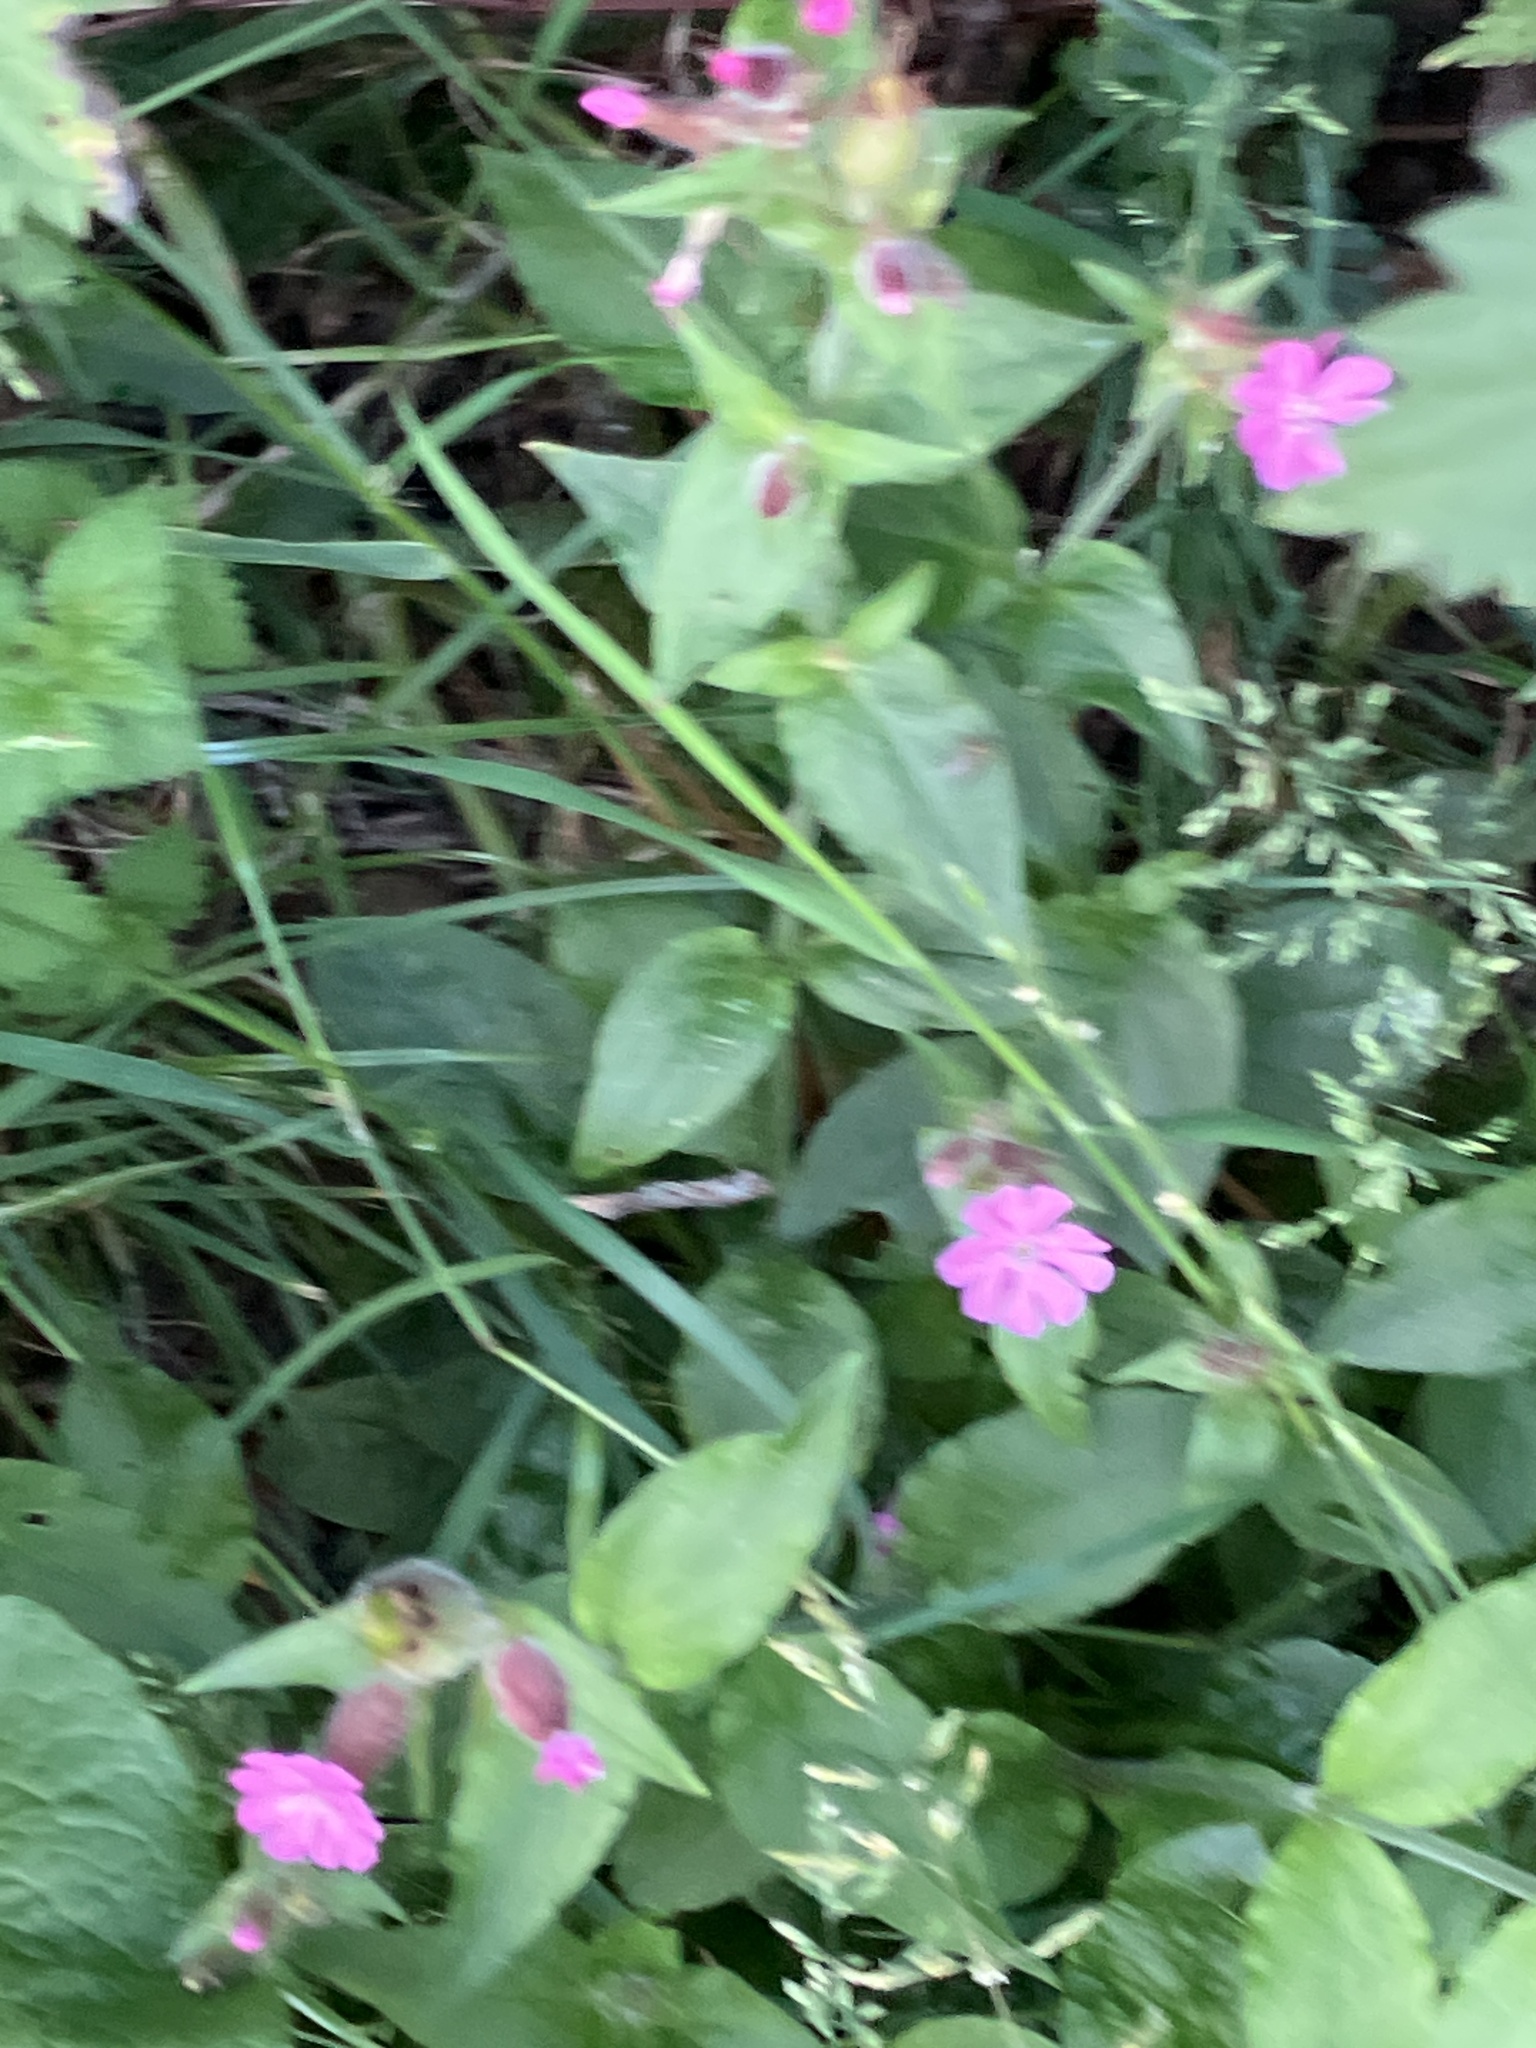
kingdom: Plantae
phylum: Tracheophyta
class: Magnoliopsida
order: Caryophyllales
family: Caryophyllaceae
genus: Silene
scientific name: Silene dioica
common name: Red campion
